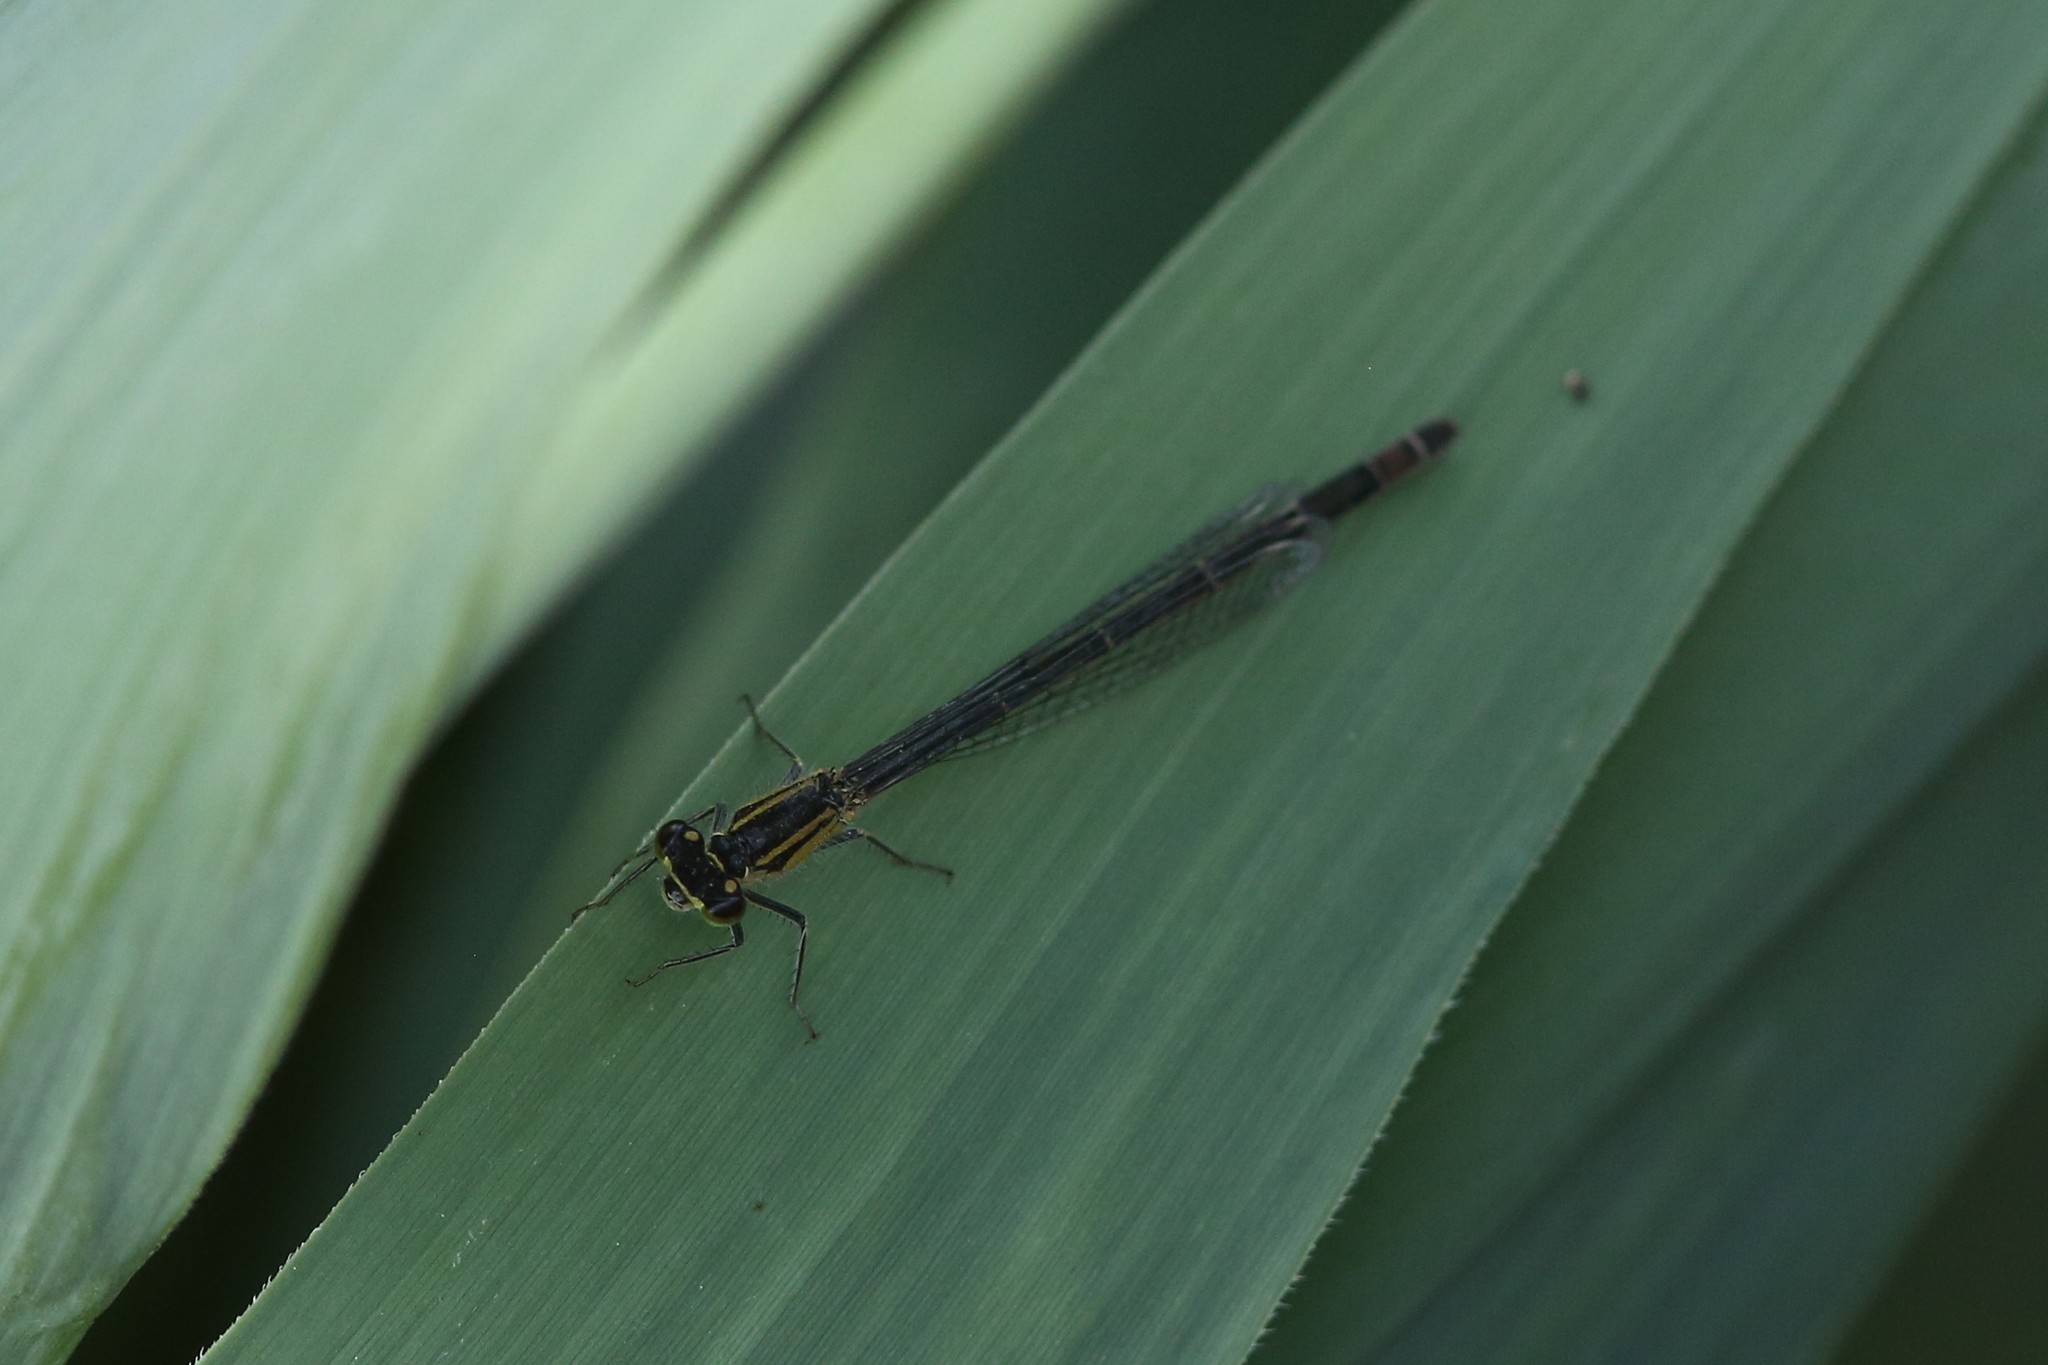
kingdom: Animalia
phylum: Arthropoda
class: Insecta
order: Odonata
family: Coenagrionidae
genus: Ischnura
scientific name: Ischnura elegans
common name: Blue-tailed damselfly
